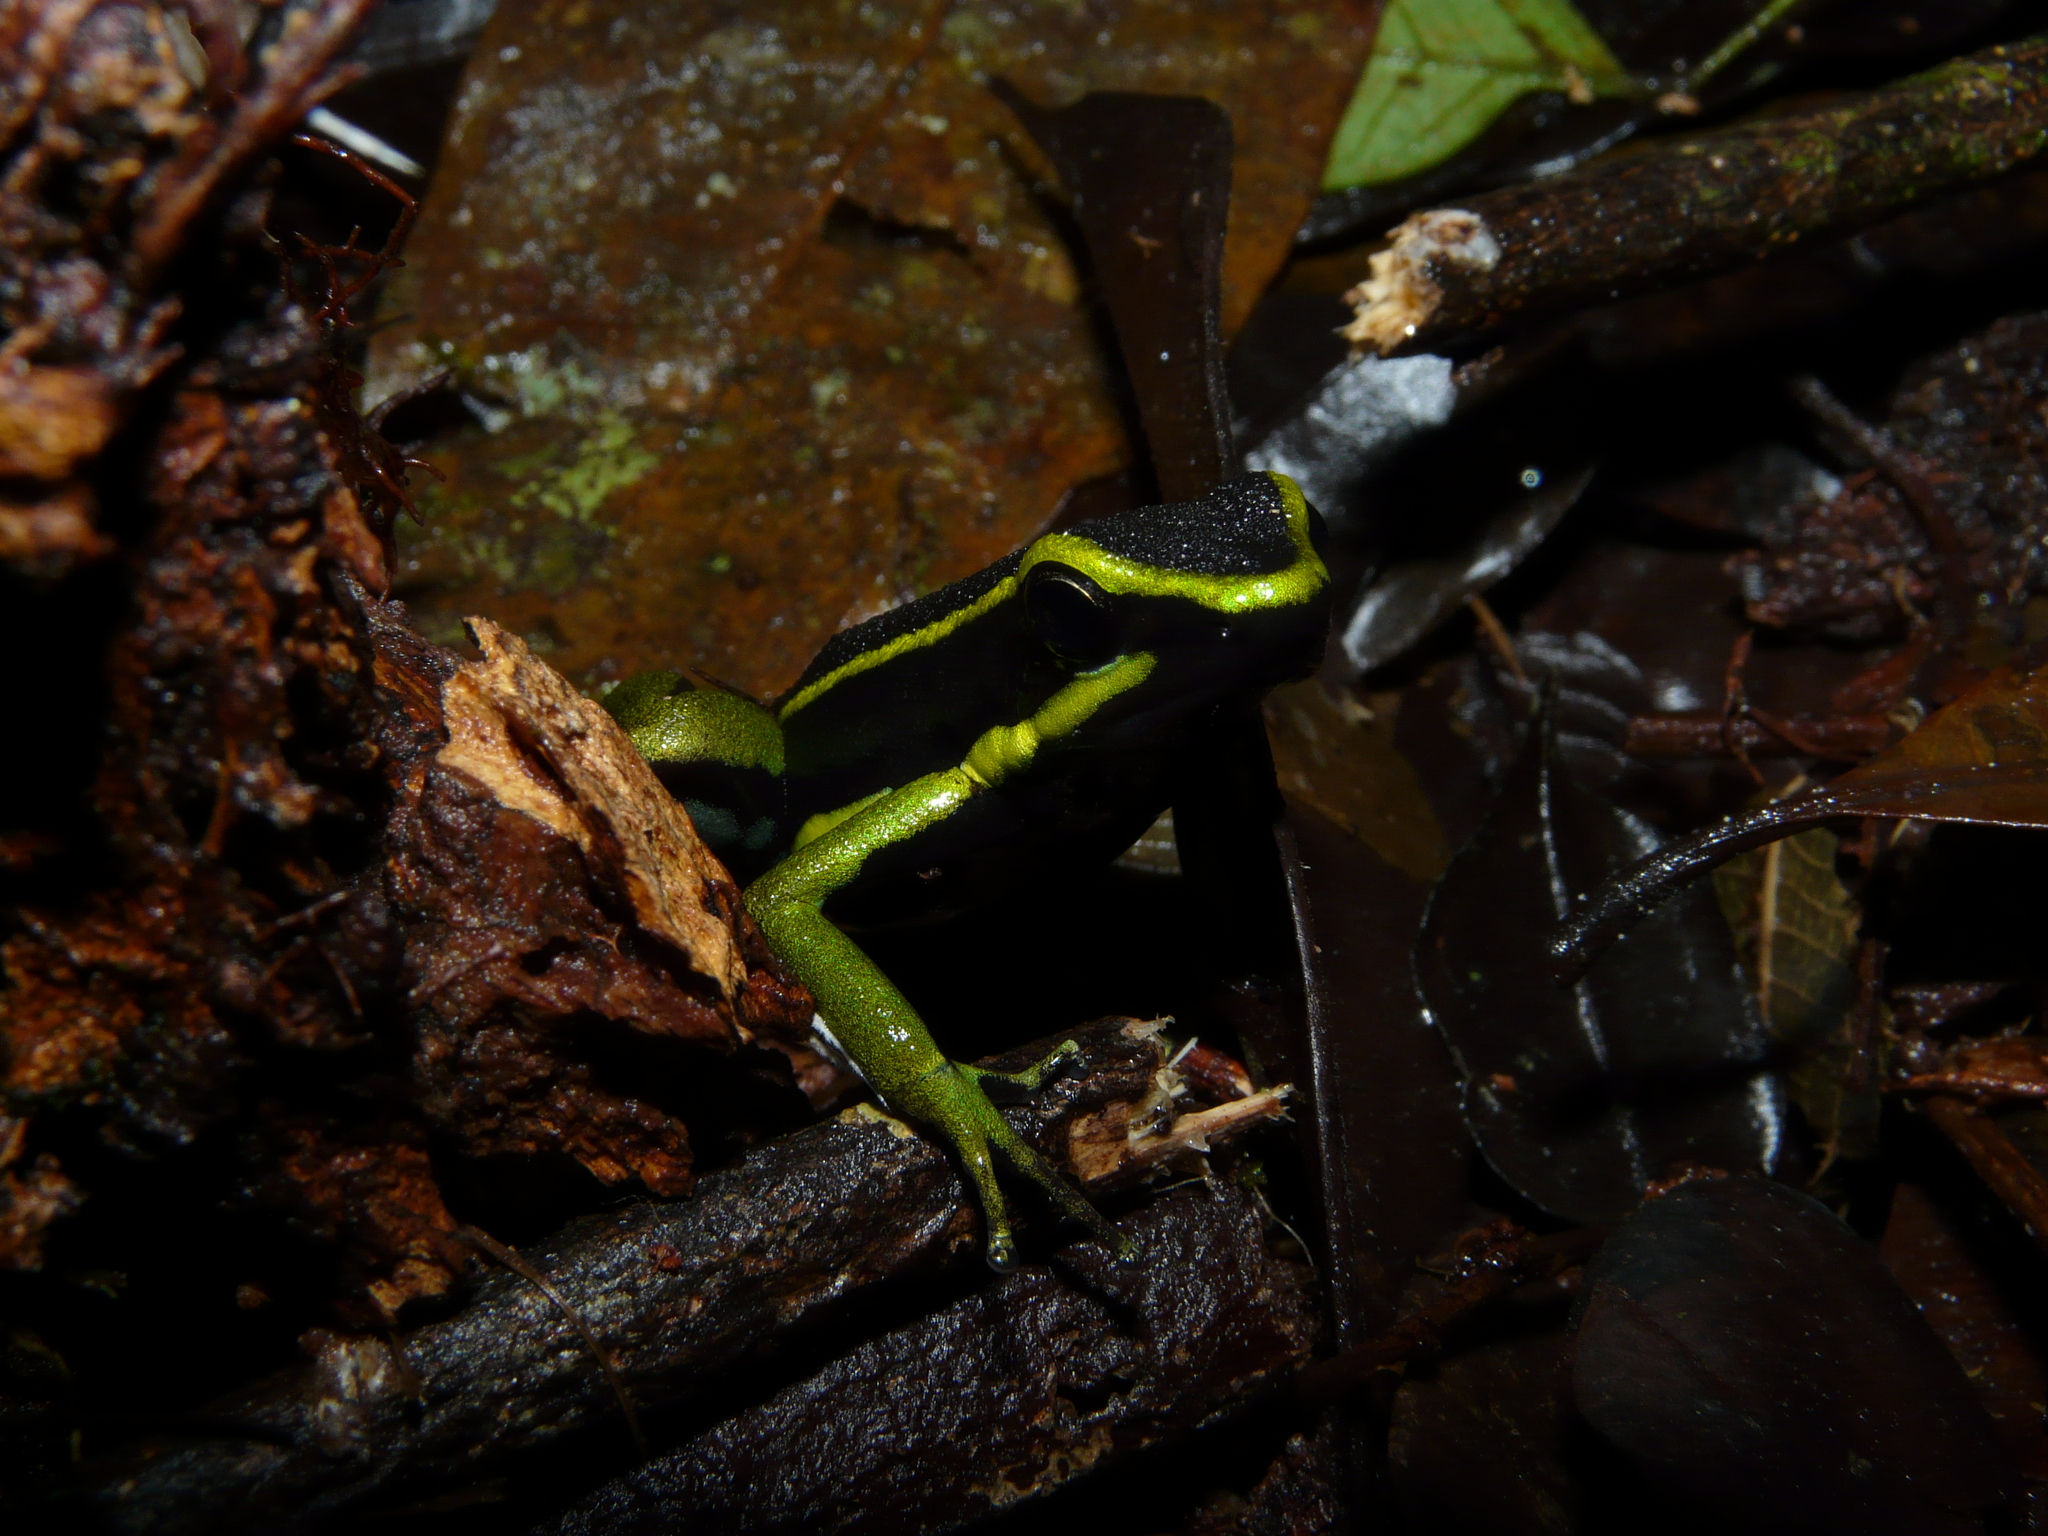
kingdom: Animalia
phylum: Chordata
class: Amphibia
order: Anura
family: Dendrobatidae
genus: Ameerega
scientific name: Ameerega trivittata
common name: Three-striped arrow-poison frog
